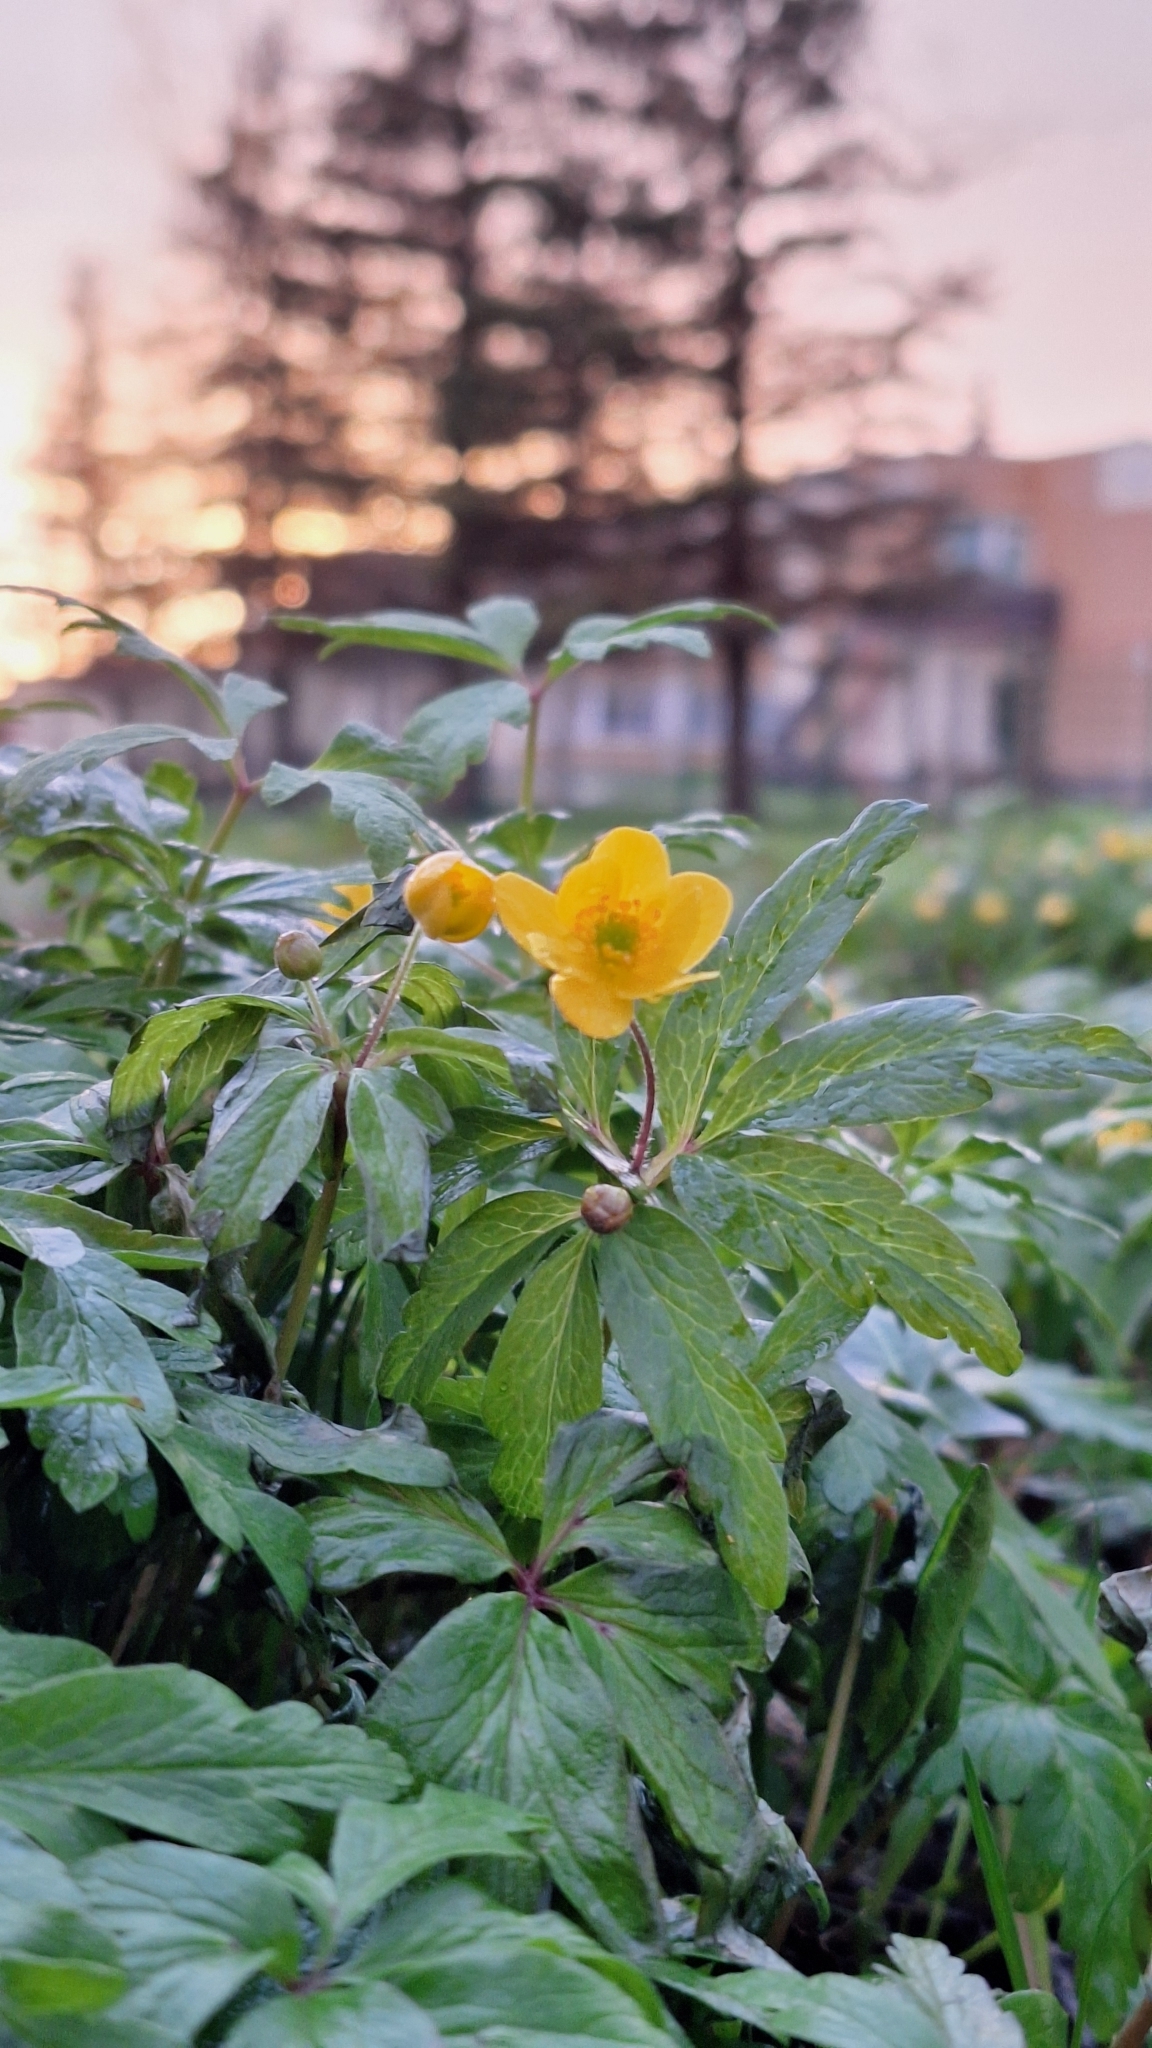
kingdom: Plantae
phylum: Tracheophyta
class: Magnoliopsida
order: Ranunculales
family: Ranunculaceae
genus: Anemone
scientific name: Anemone ranunculoides
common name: Yellow anemone
